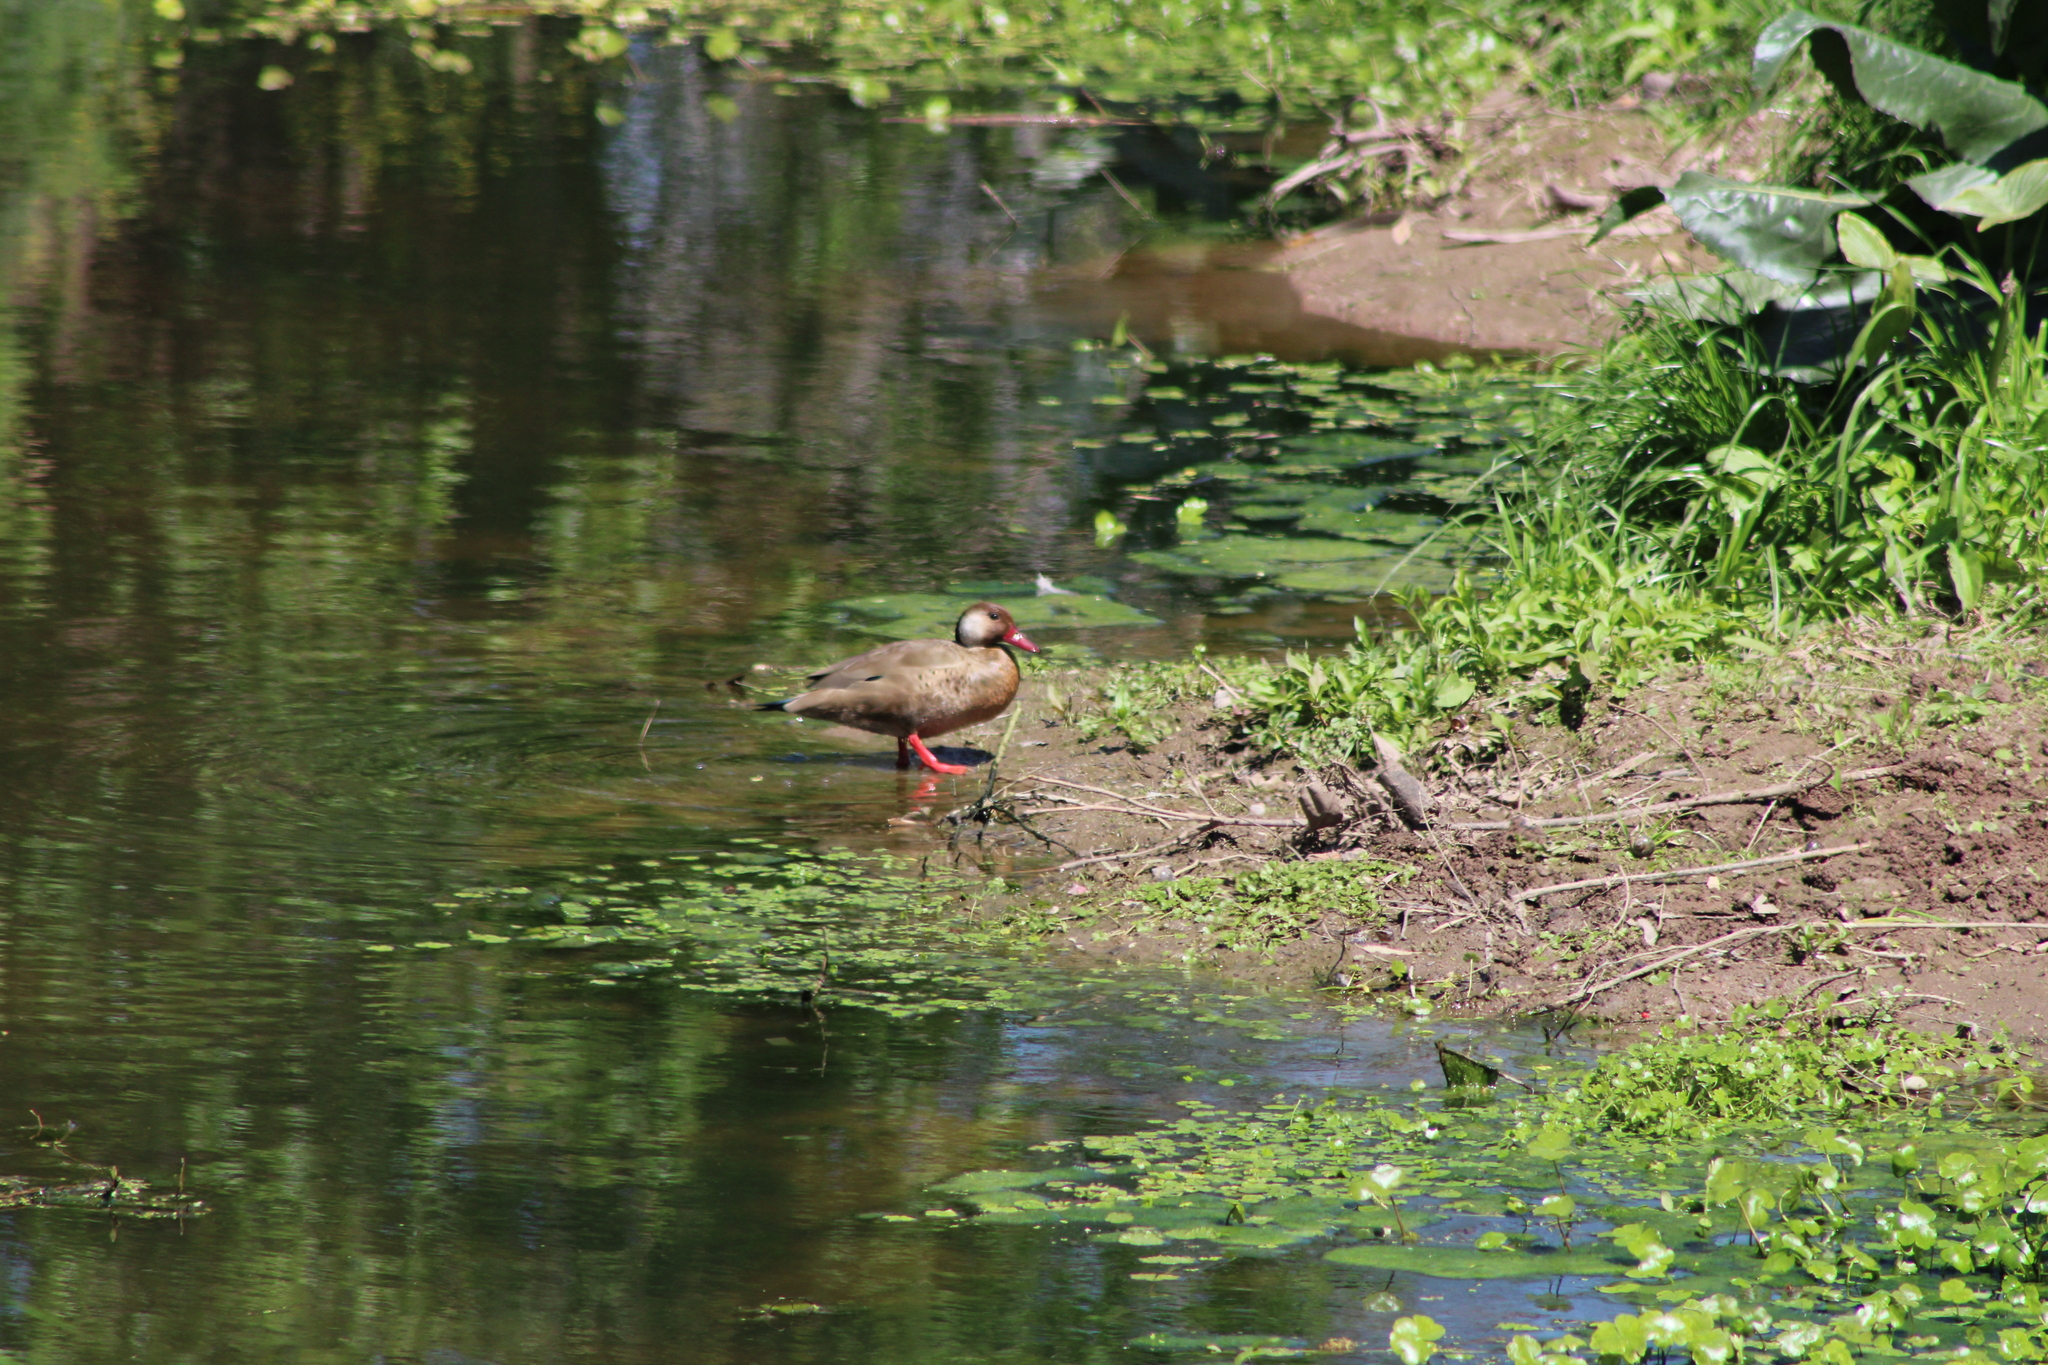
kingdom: Animalia
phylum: Chordata
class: Aves
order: Anseriformes
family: Anatidae
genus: Amazonetta
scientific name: Amazonetta brasiliensis
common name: Brazilian teal
